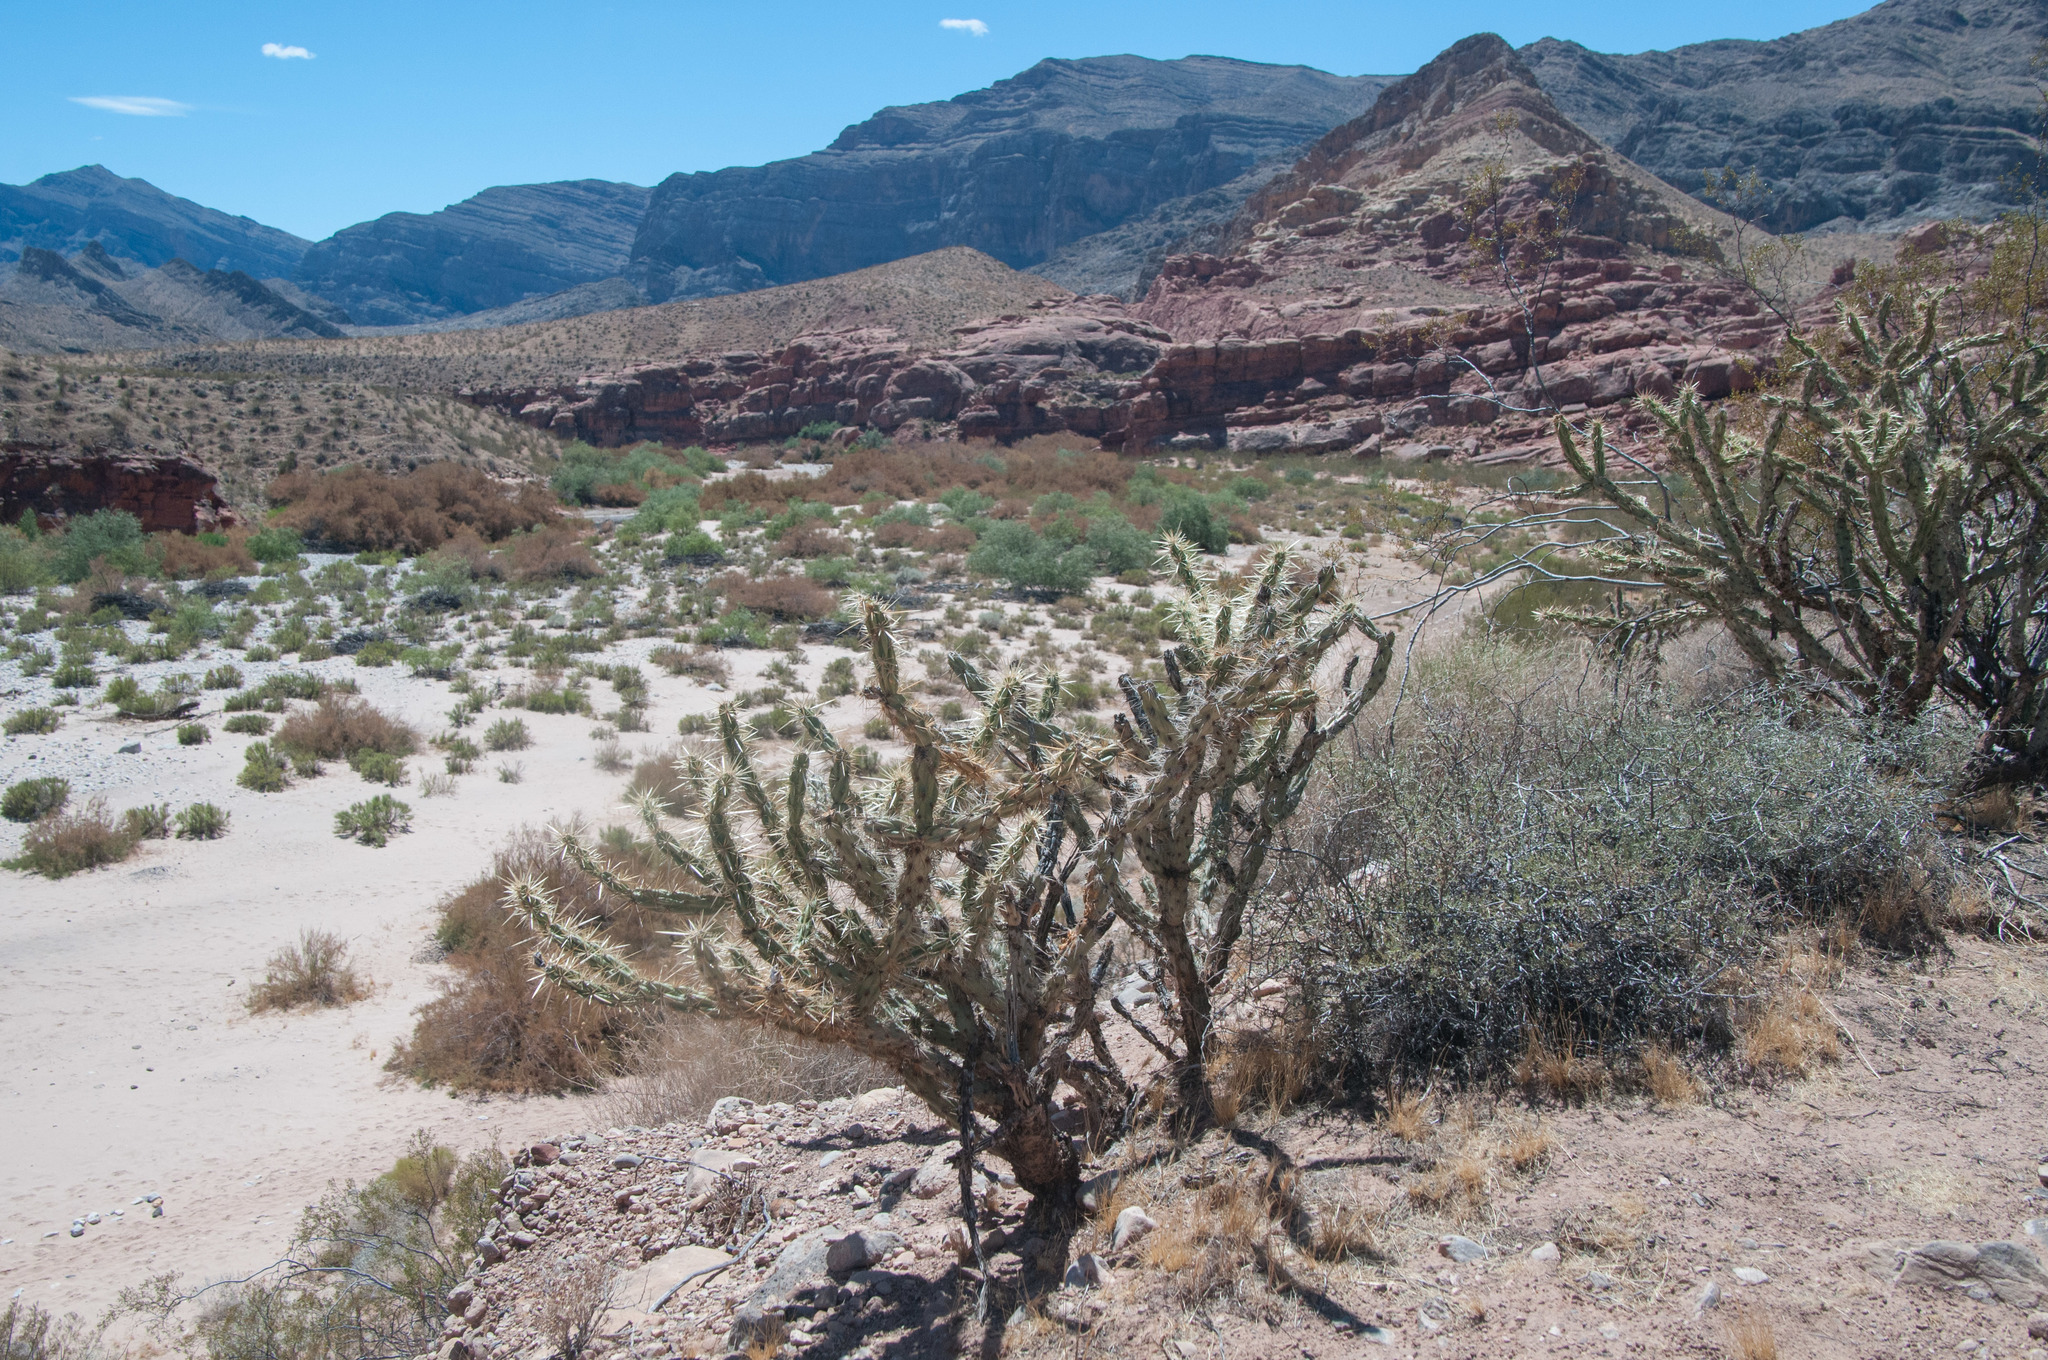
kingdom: Plantae
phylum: Tracheophyta
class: Magnoliopsida
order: Caryophyllales
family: Cactaceae
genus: Cylindropuntia
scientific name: Cylindropuntia acanthocarpa
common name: Buckhorn cholla
